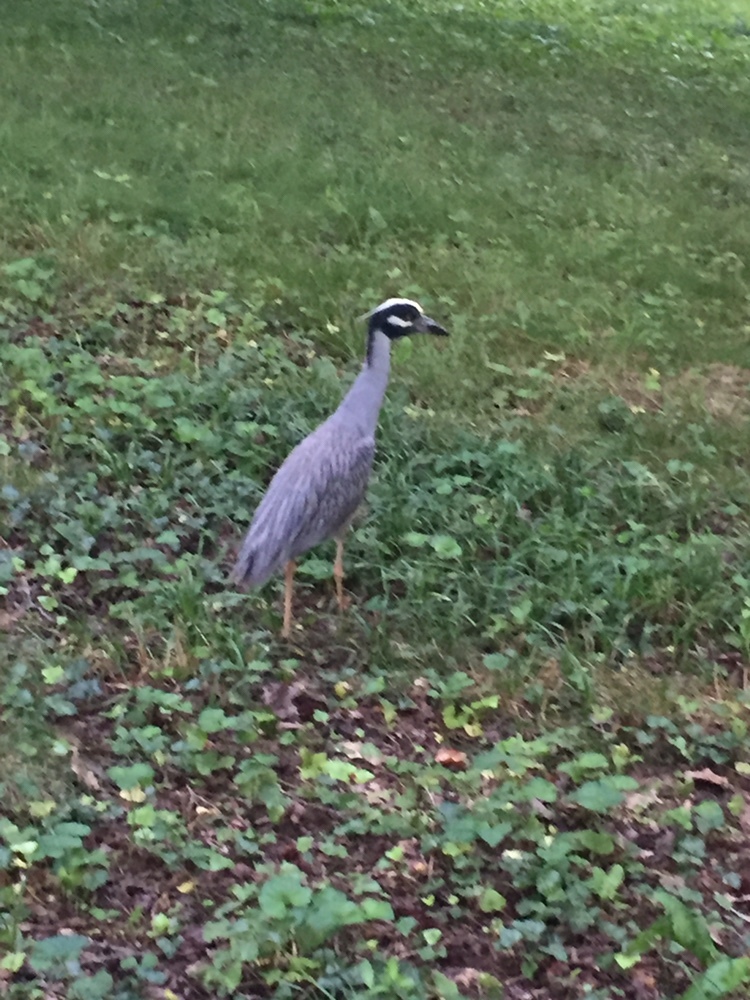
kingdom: Animalia
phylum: Chordata
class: Aves
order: Pelecaniformes
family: Ardeidae
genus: Nyctanassa
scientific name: Nyctanassa violacea
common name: Yellow-crowned night heron
